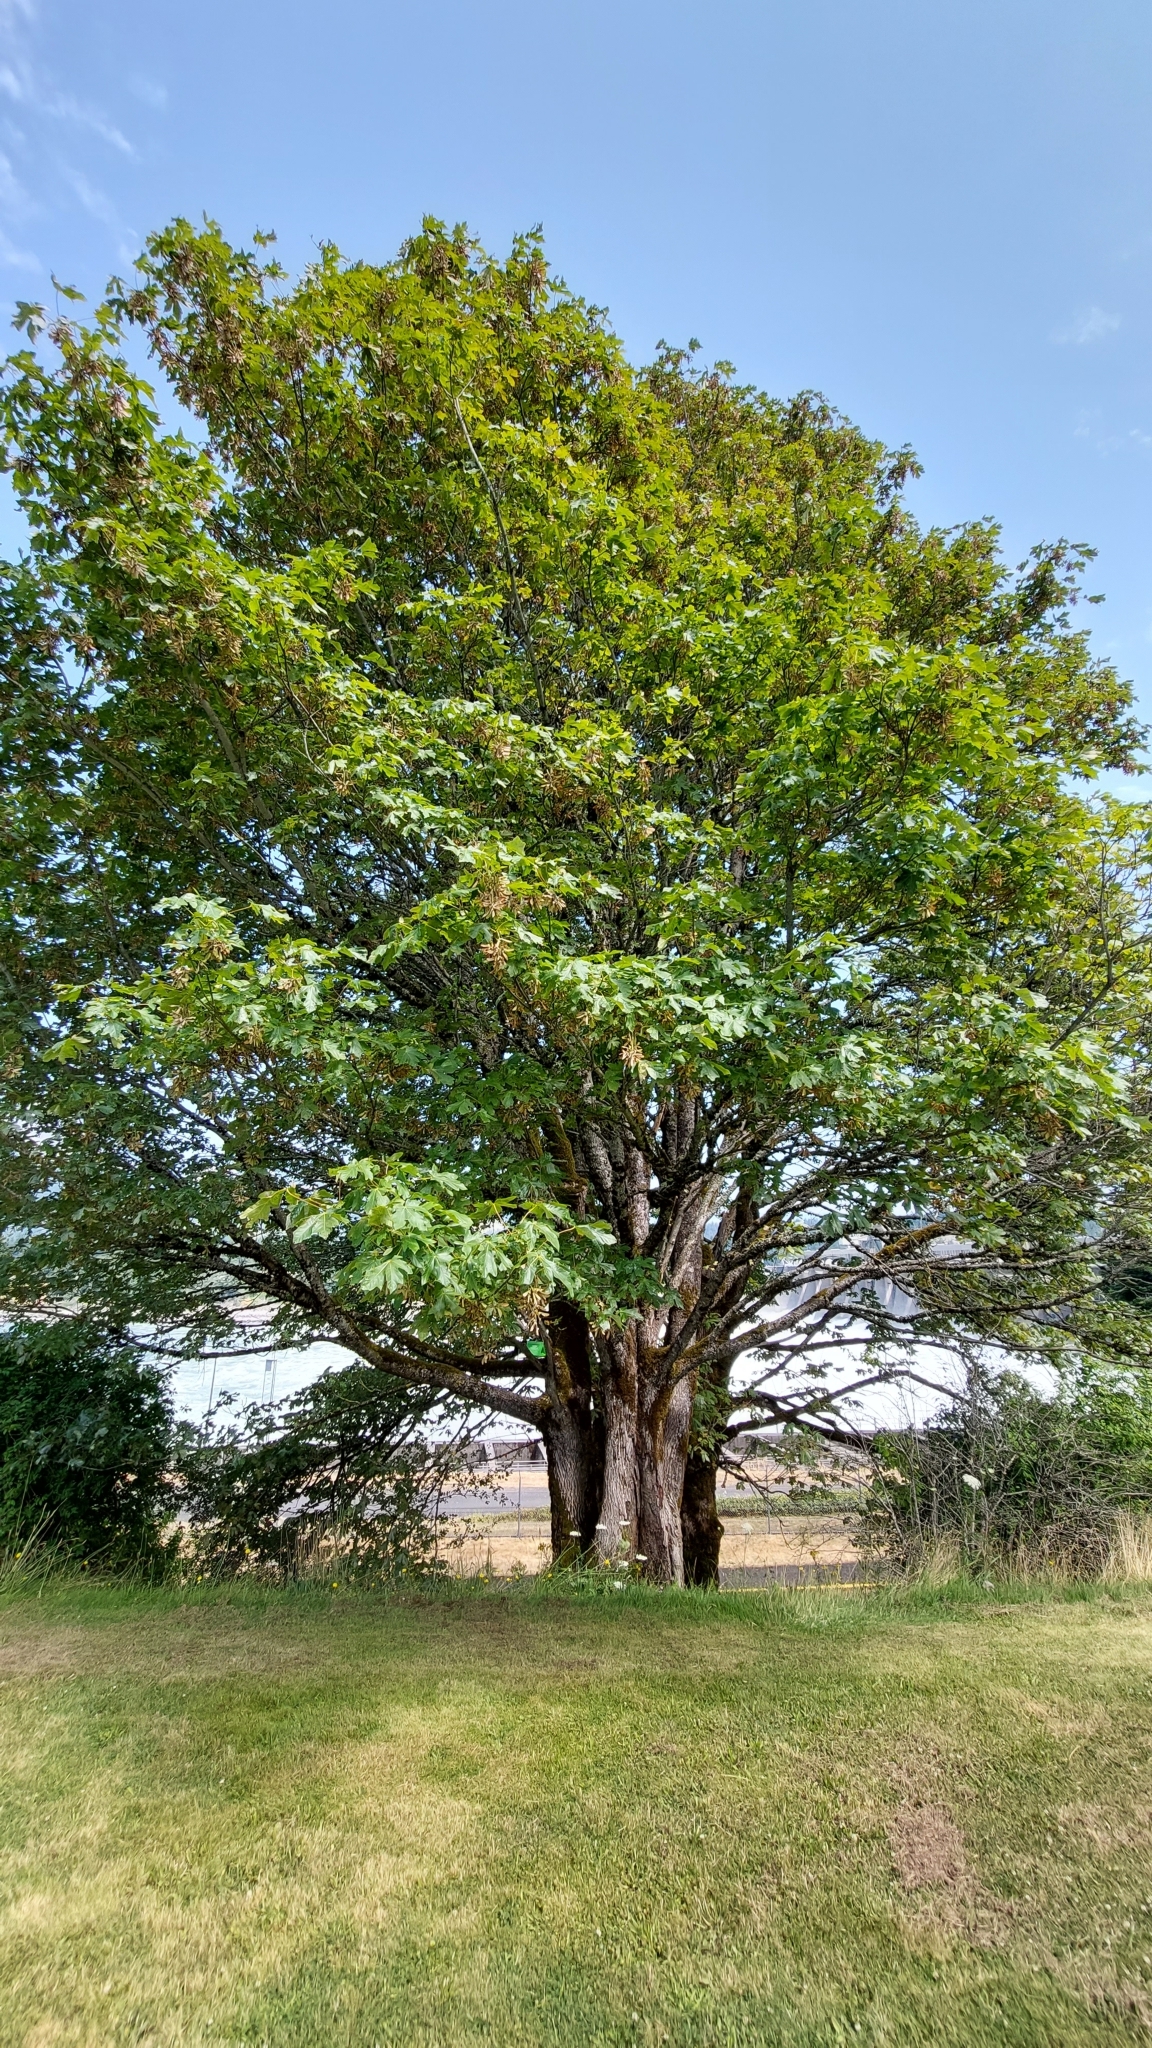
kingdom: Plantae
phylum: Tracheophyta
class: Magnoliopsida
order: Sapindales
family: Sapindaceae
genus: Acer
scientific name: Acer macrophyllum
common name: Oregon maple
